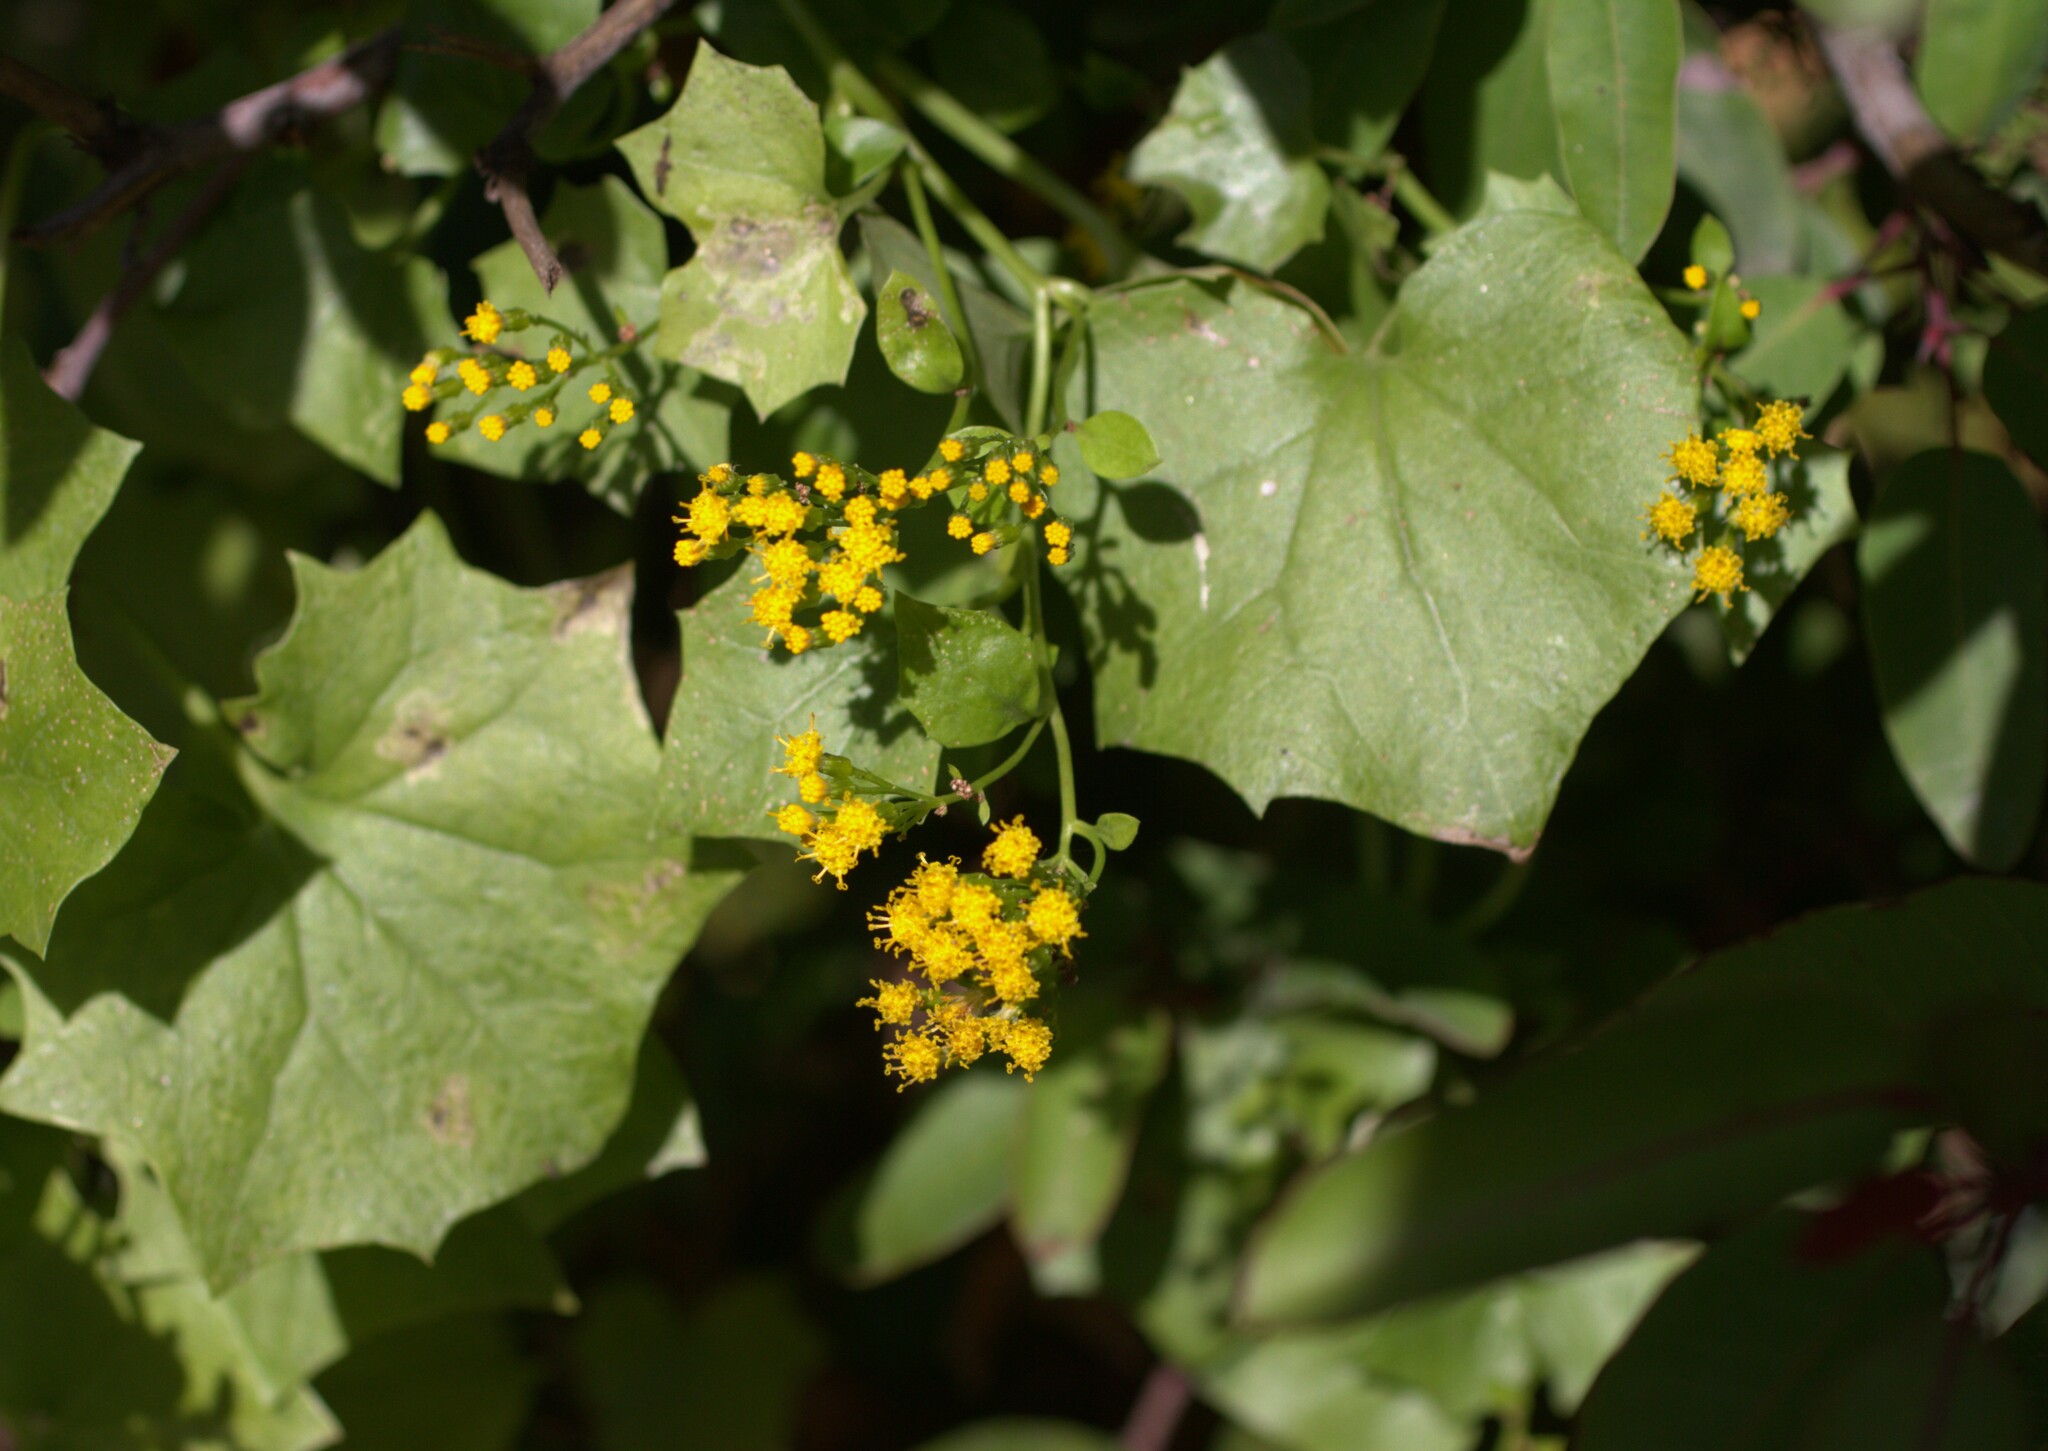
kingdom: Plantae
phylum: Tracheophyta
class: Magnoliopsida
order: Asterales
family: Asteraceae
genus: Delairea
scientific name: Delairea odorata
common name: Cape-ivy
